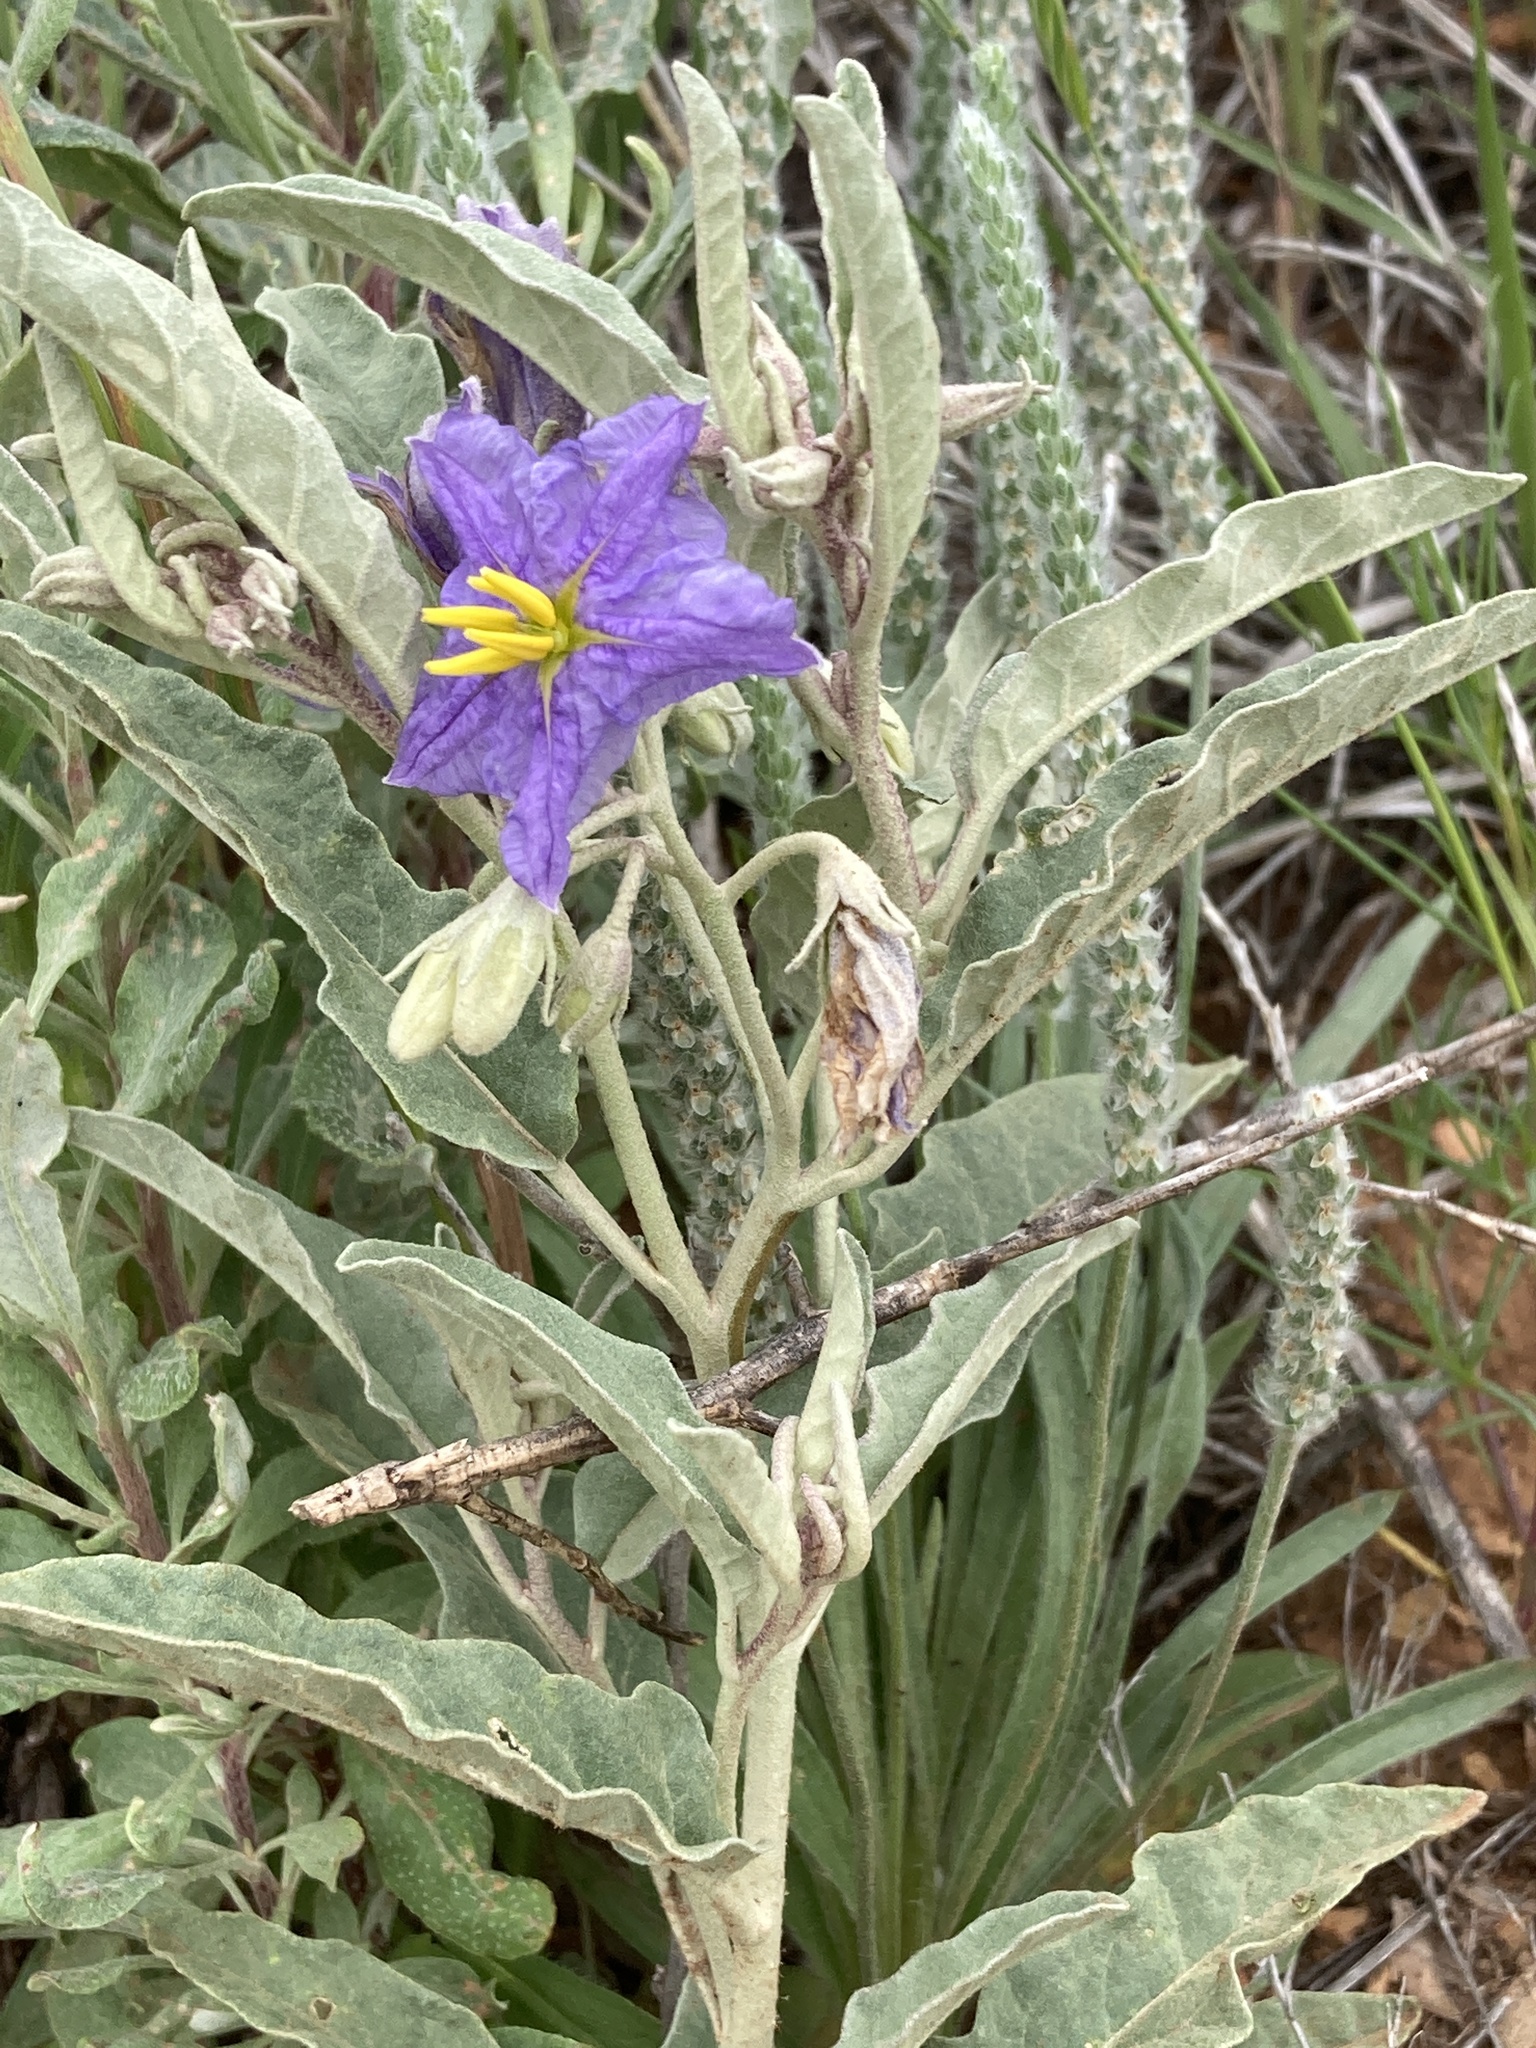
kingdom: Plantae
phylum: Tracheophyta
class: Magnoliopsida
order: Solanales
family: Solanaceae
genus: Solanum
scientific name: Solanum elaeagnifolium
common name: Silverleaf nightshade
